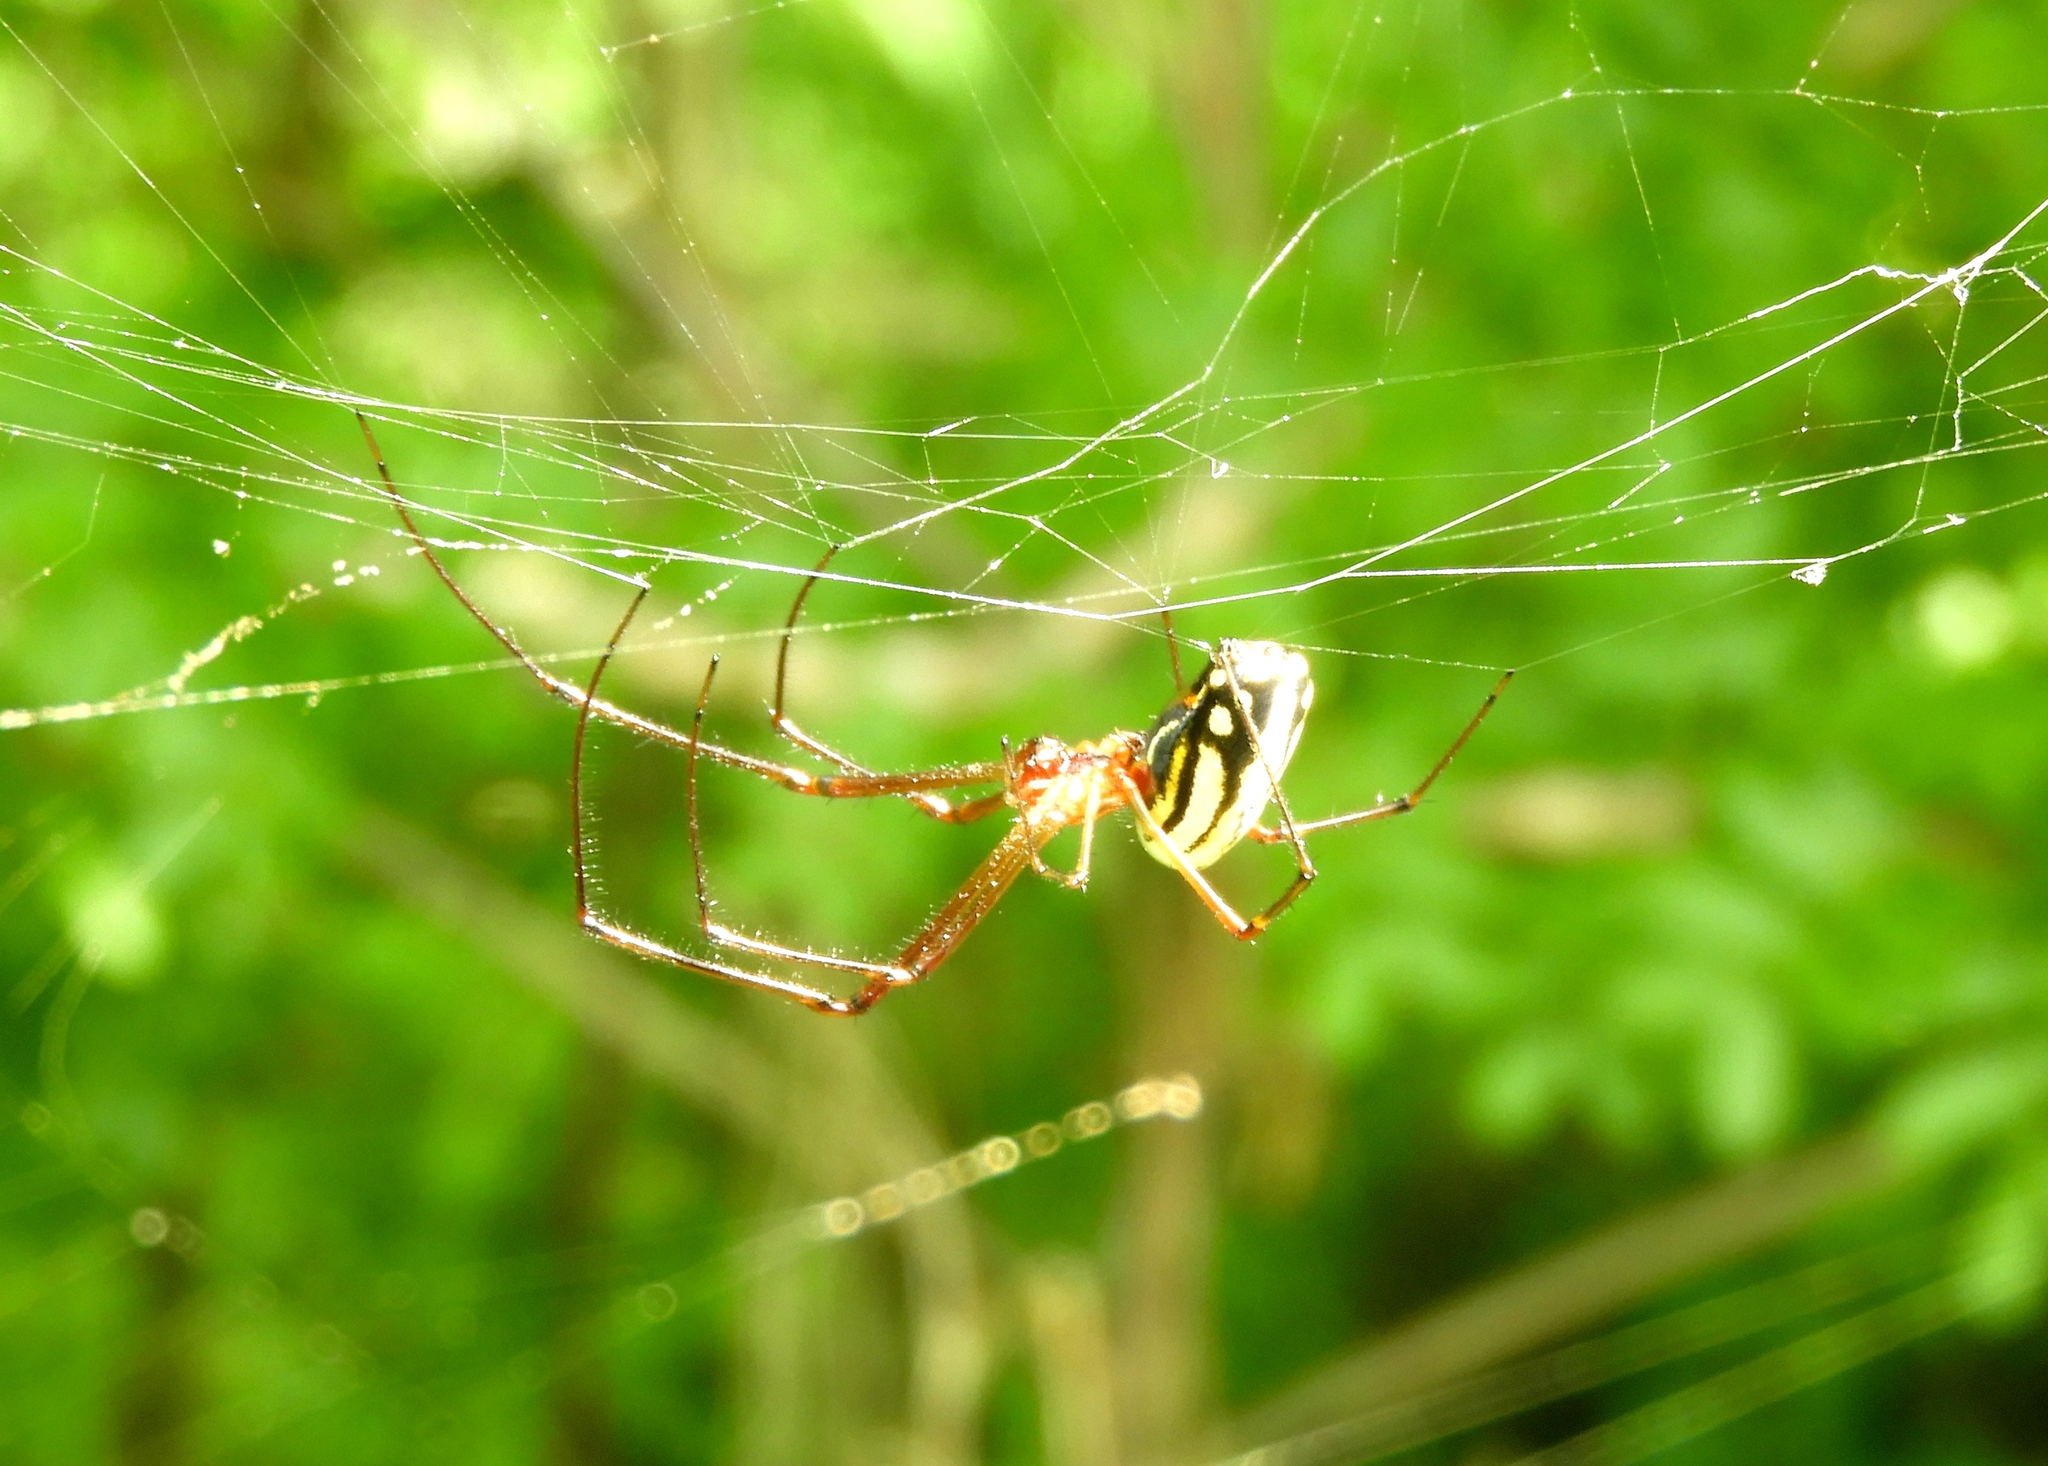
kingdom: Animalia
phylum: Arthropoda
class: Arachnida
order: Araneae
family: Tetragnathidae
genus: Leucauge
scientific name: Leucauge argyra
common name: Longjawed orb weavers
